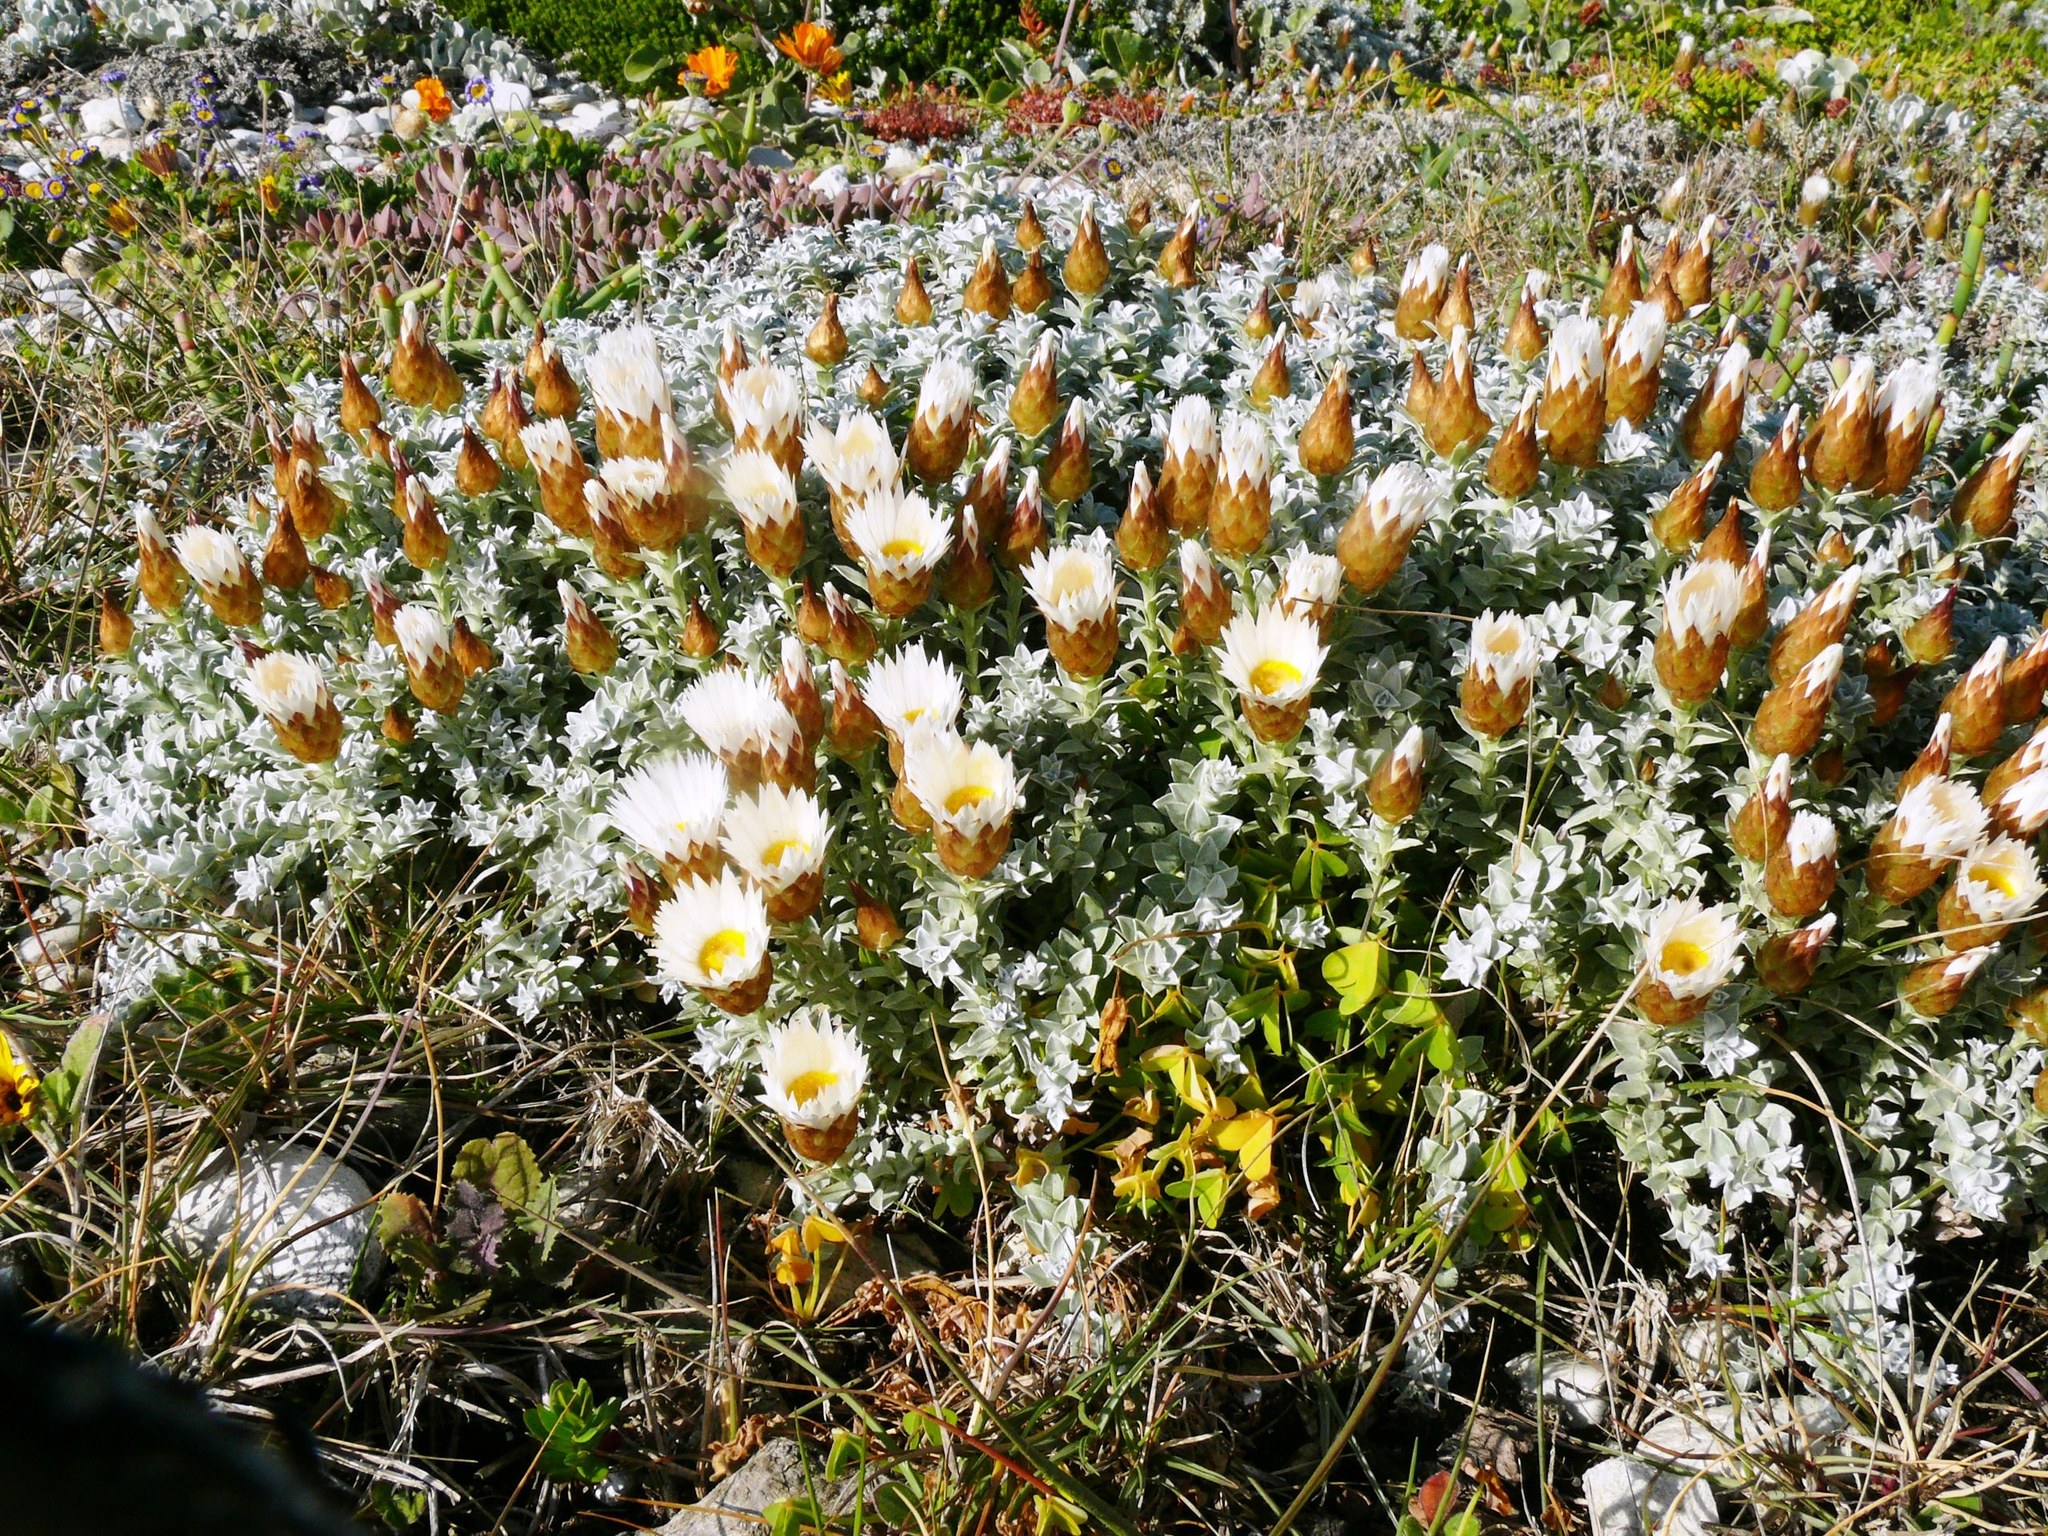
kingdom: Plantae
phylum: Tracheophyta
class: Magnoliopsida
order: Asterales
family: Asteraceae
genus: Helichrysum
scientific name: Helichrysum retortum
